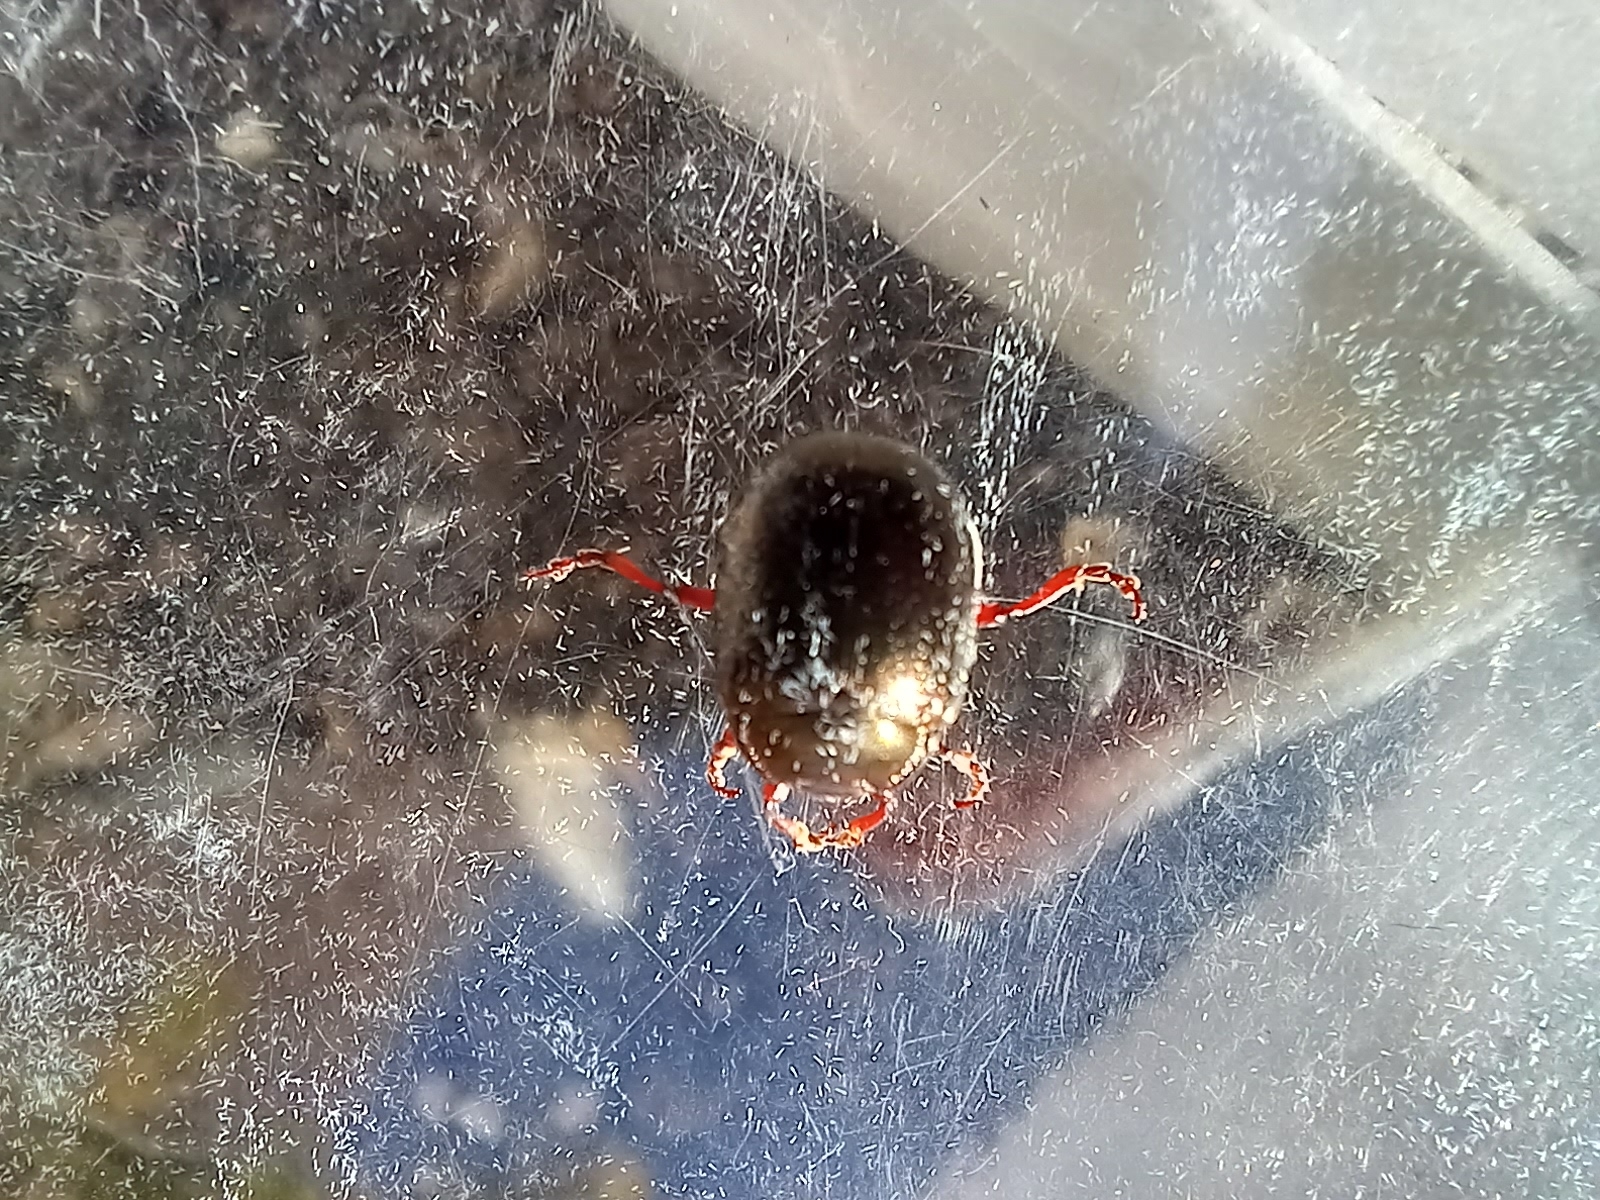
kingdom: Animalia
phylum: Arthropoda
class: Insecta
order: Coleoptera
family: Chrysomelidae
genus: Chrysolina
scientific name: Chrysolina bankii
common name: Leaf beetle
